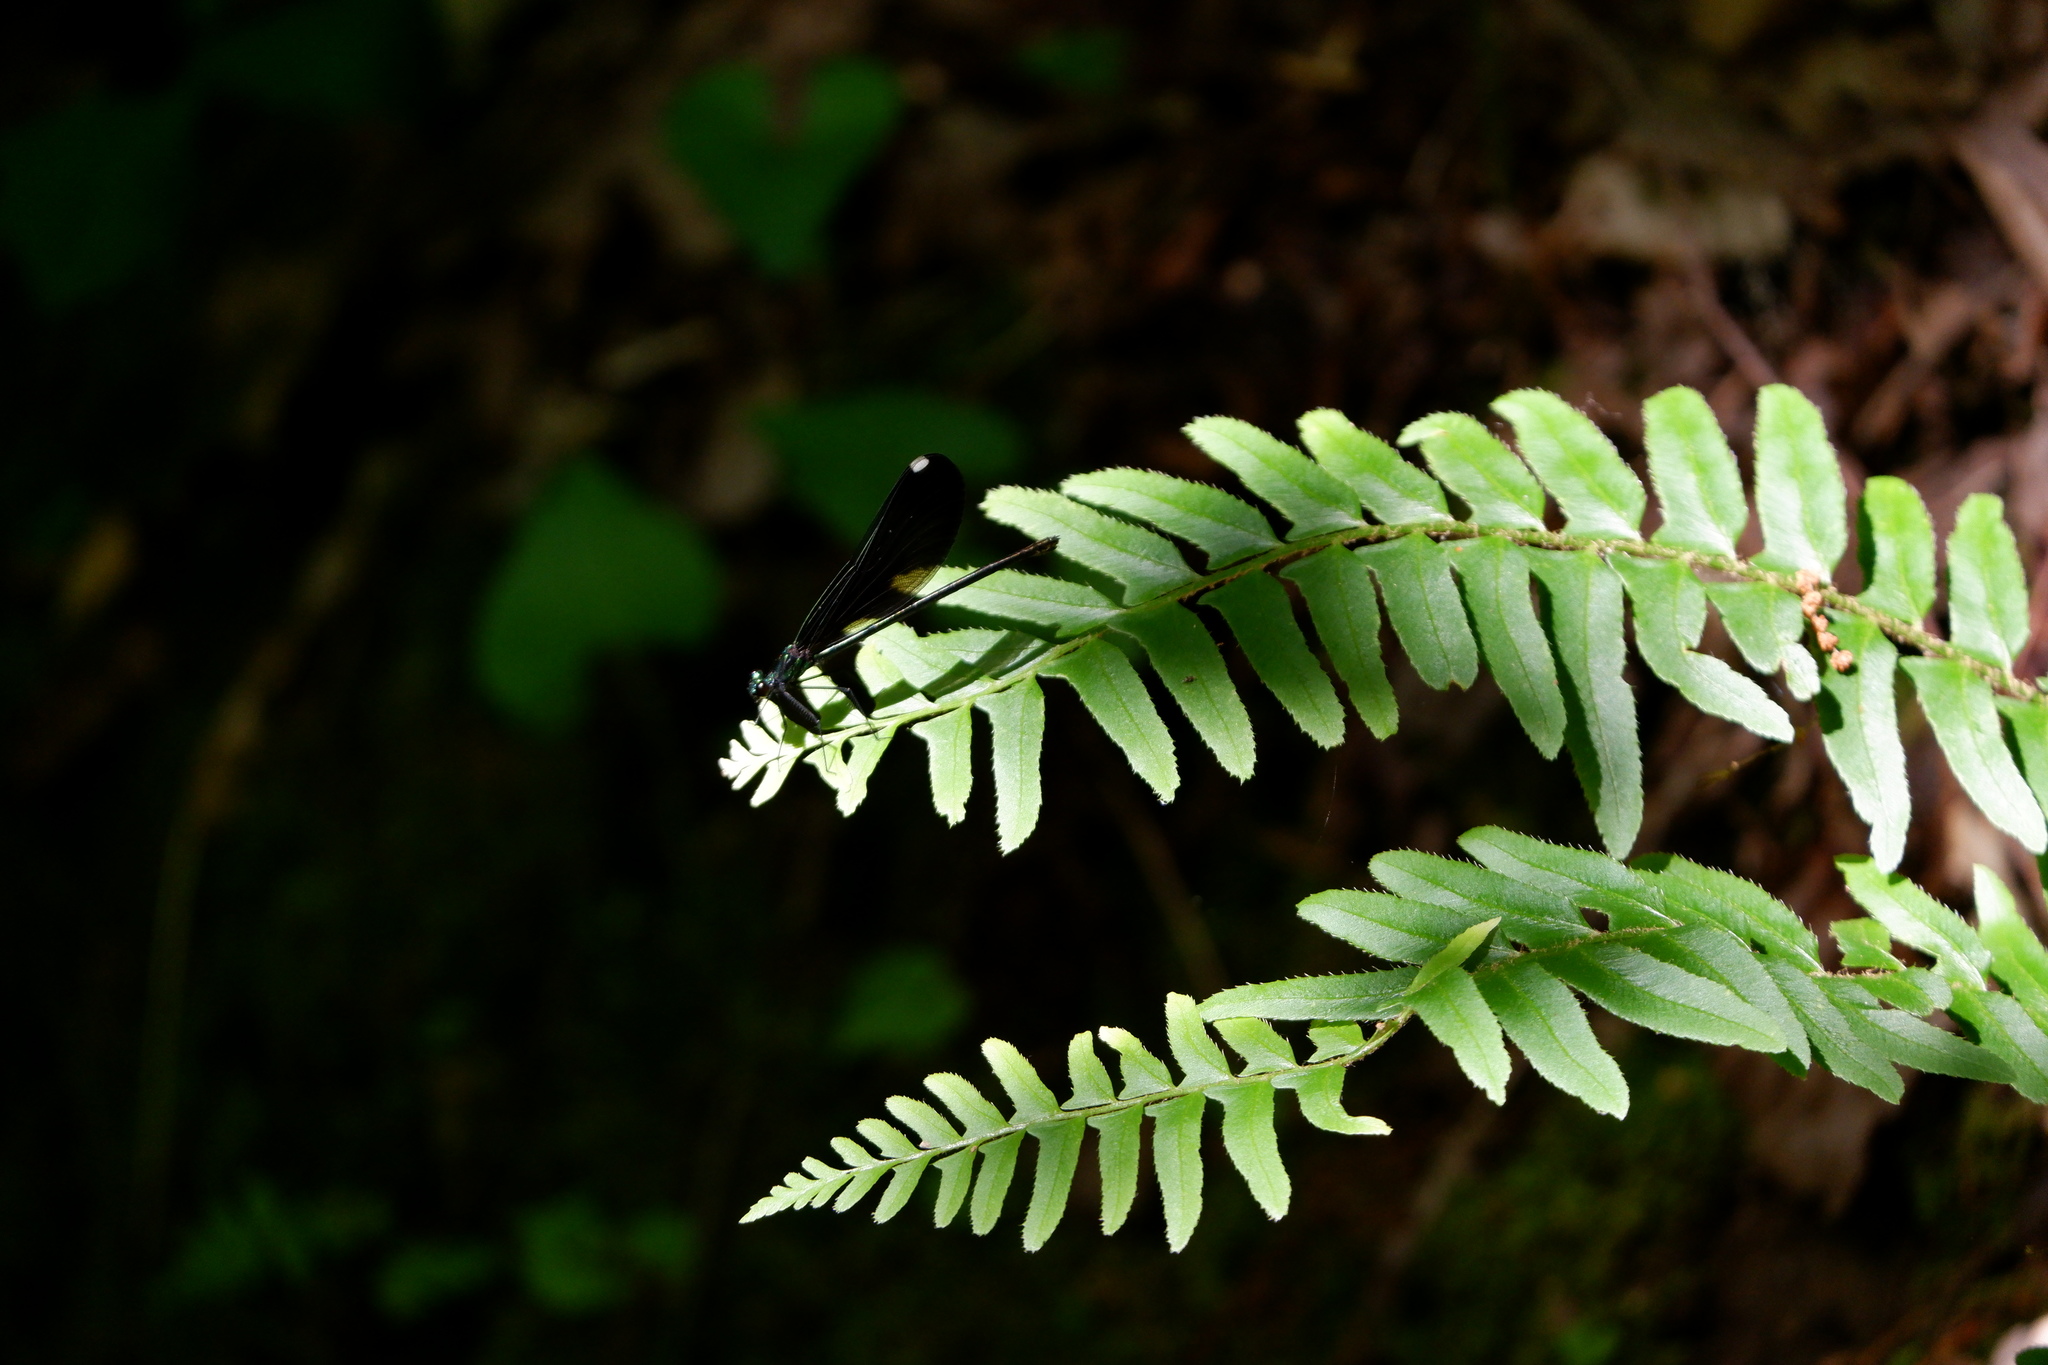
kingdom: Animalia
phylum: Arthropoda
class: Insecta
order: Odonata
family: Calopterygidae
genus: Calopteryx
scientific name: Calopteryx maculata
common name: Ebony jewelwing
